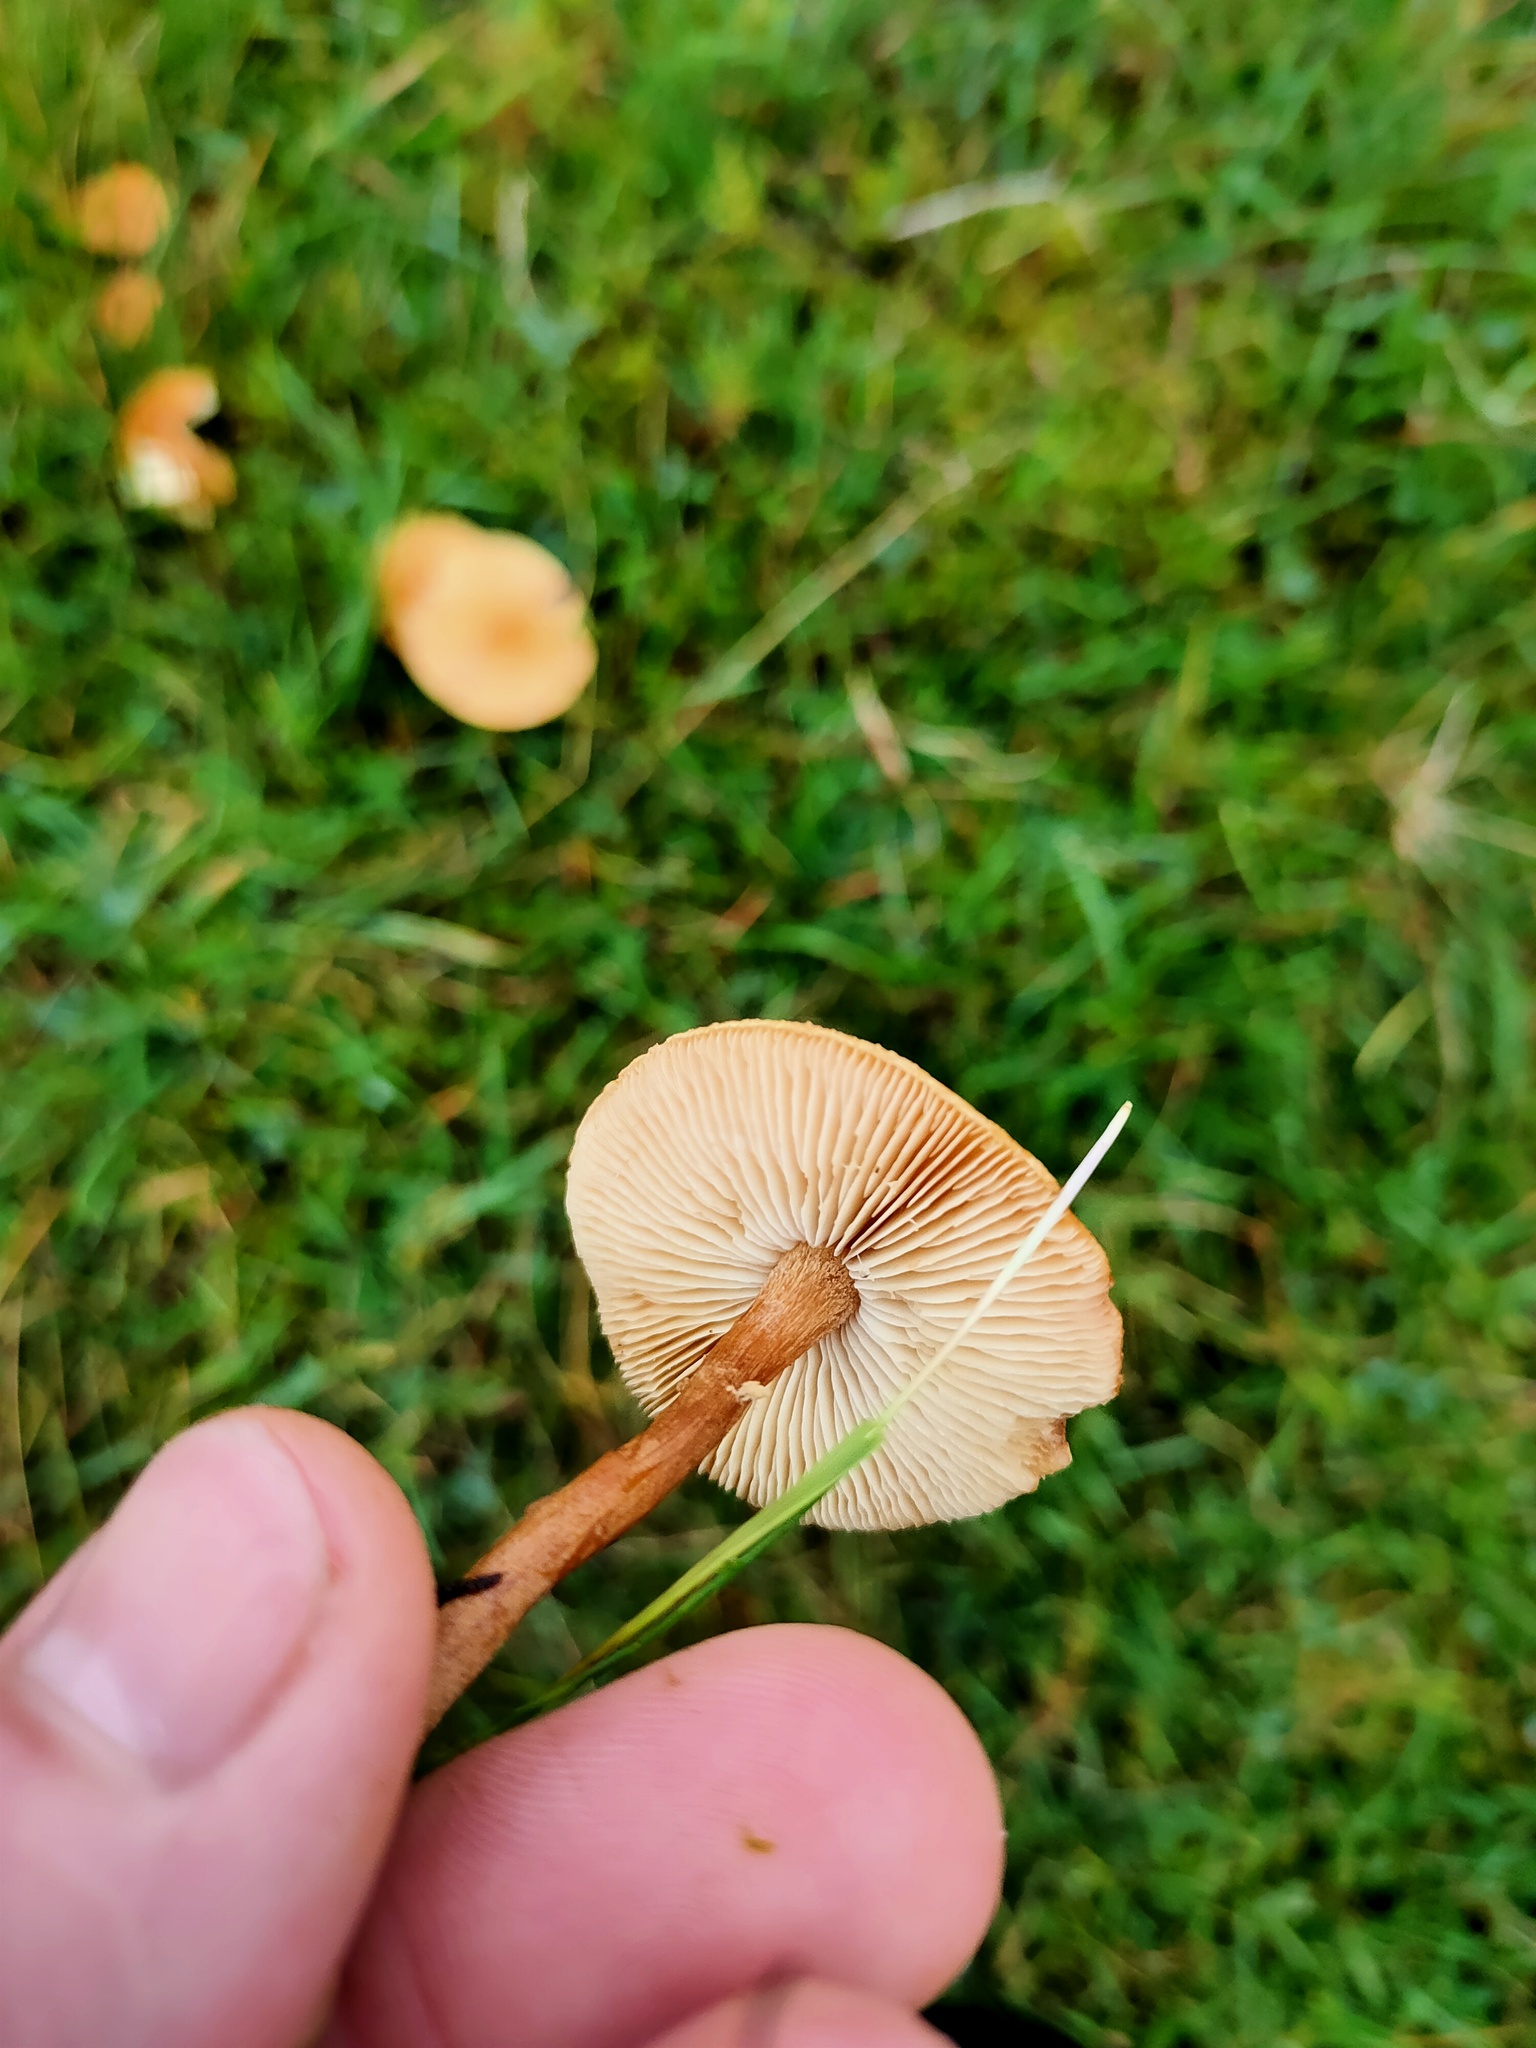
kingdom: Fungi
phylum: Basidiomycota
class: Agaricomycetes
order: Agaricales
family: Tricholomataceae
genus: Cystoderma
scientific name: Cystoderma amianthinum
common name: Earthy powdercap
